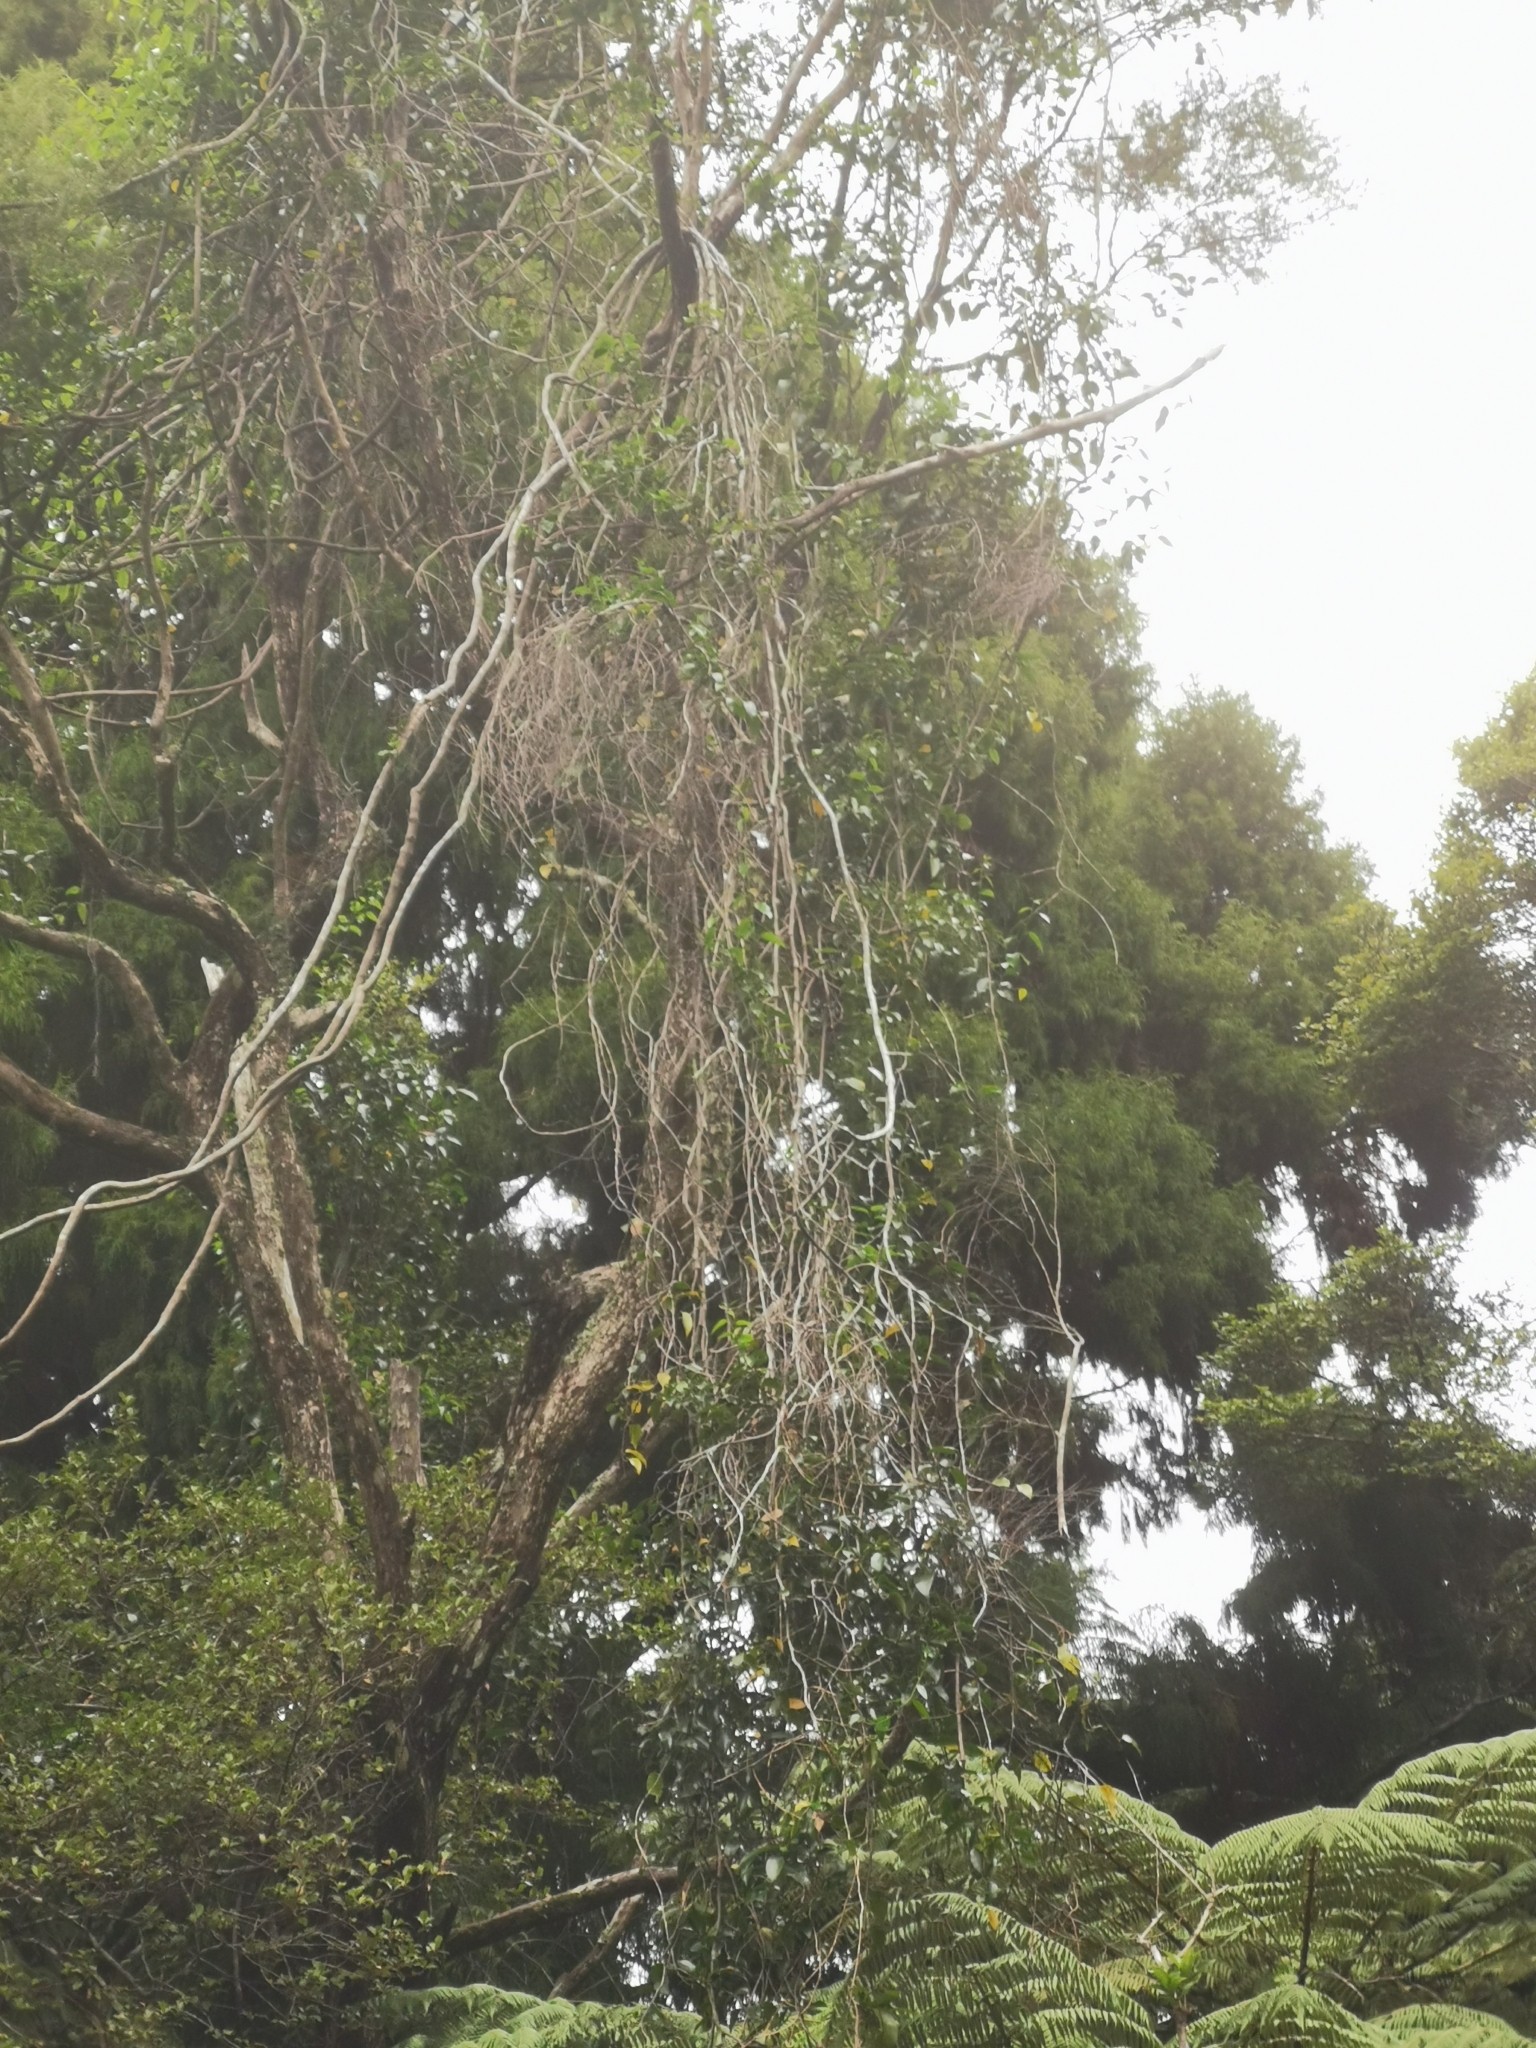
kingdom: Plantae
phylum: Tracheophyta
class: Magnoliopsida
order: Malpighiales
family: Passifloraceae
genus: Passiflora
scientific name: Passiflora tetrandra
